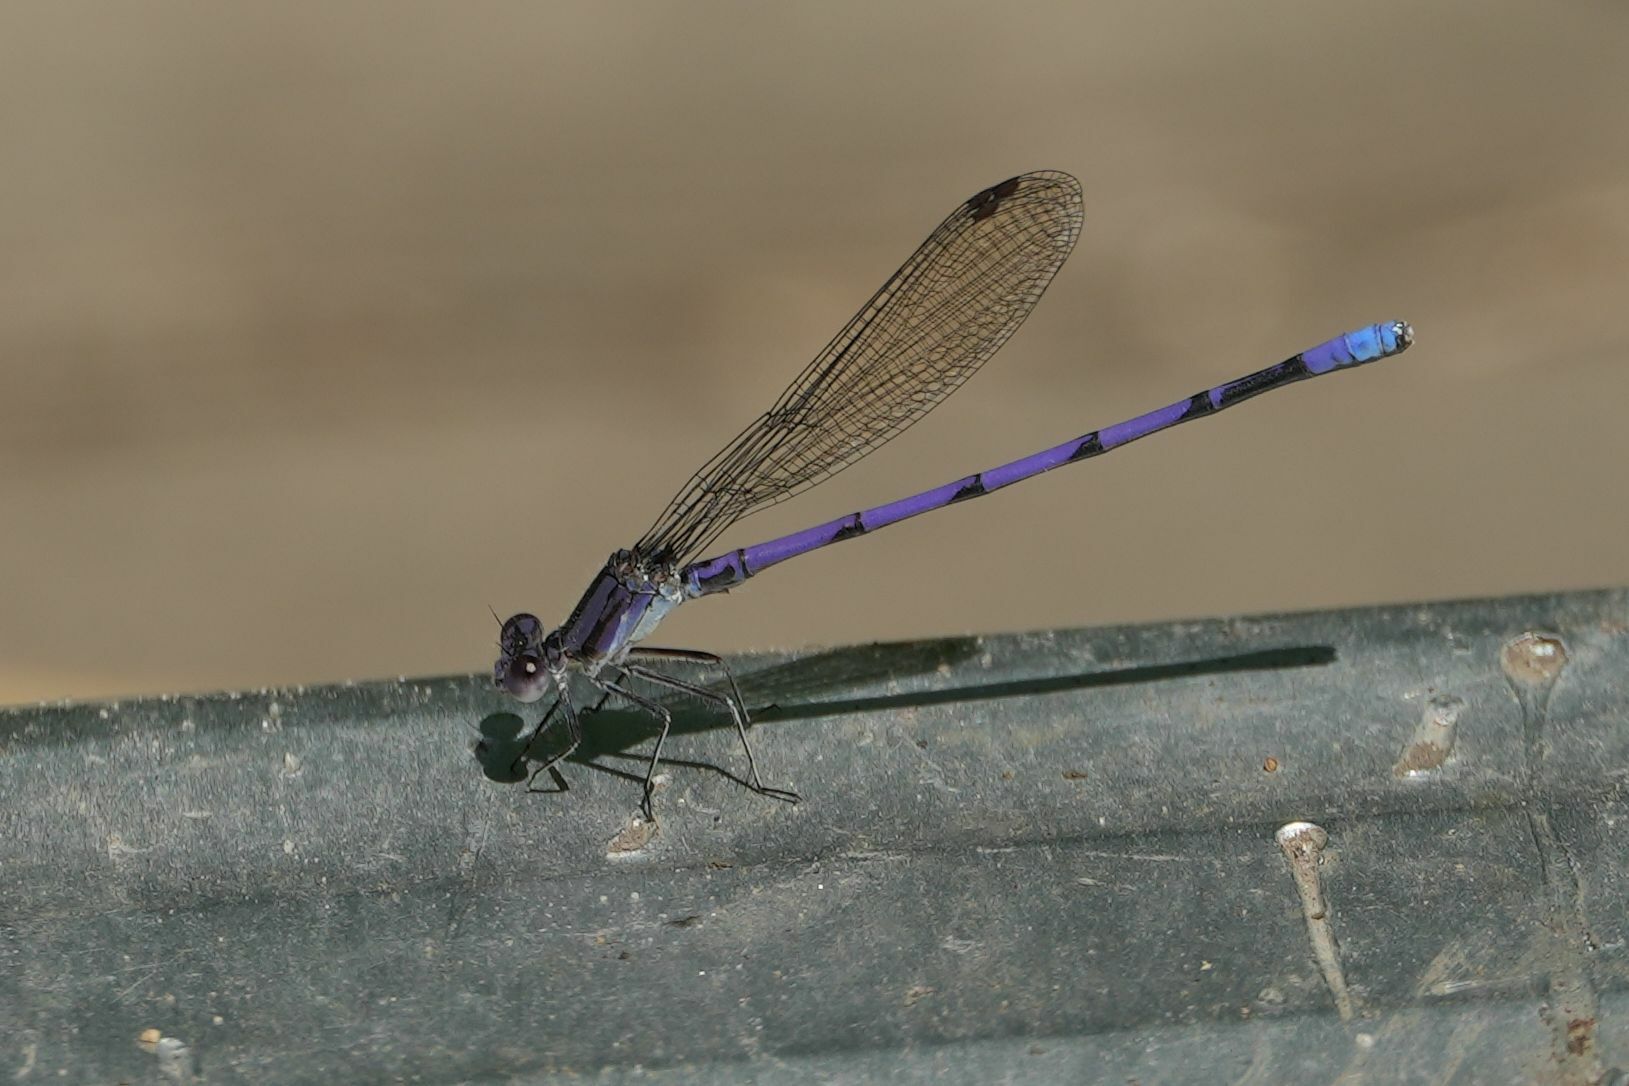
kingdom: Animalia
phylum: Arthropoda
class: Insecta
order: Odonata
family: Coenagrionidae
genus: Argia
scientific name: Argia fumipennis
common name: Variable dancer
